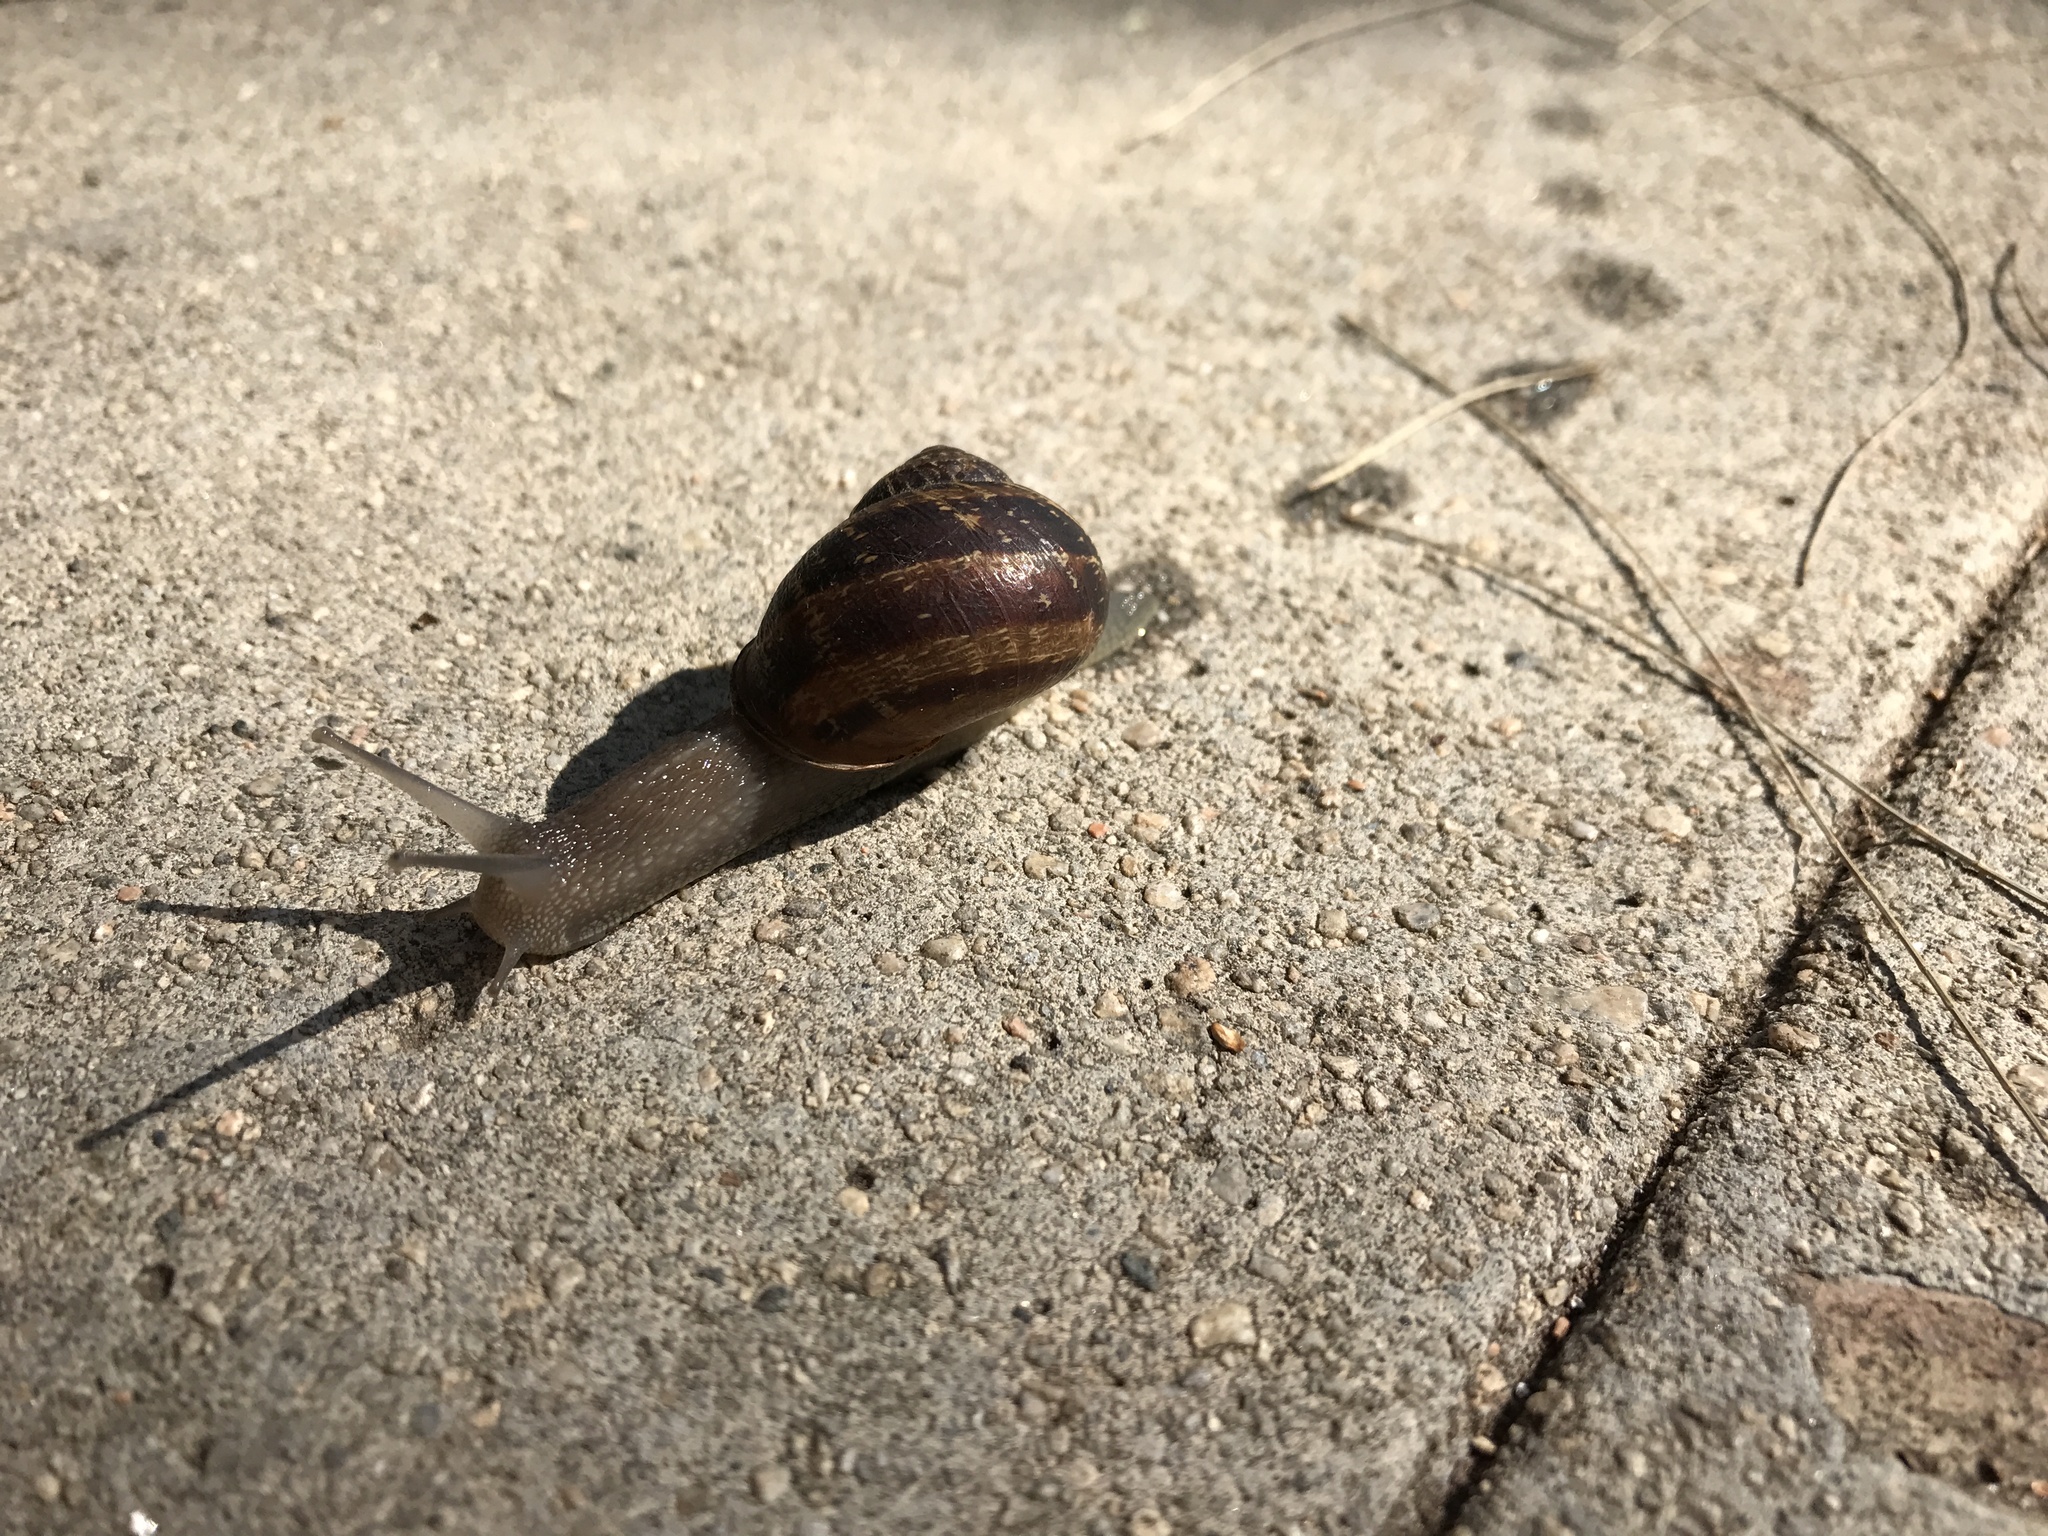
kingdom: Animalia
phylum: Mollusca
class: Gastropoda
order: Stylommatophora
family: Helicidae
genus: Cornu
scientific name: Cornu aspersum
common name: Brown garden snail
